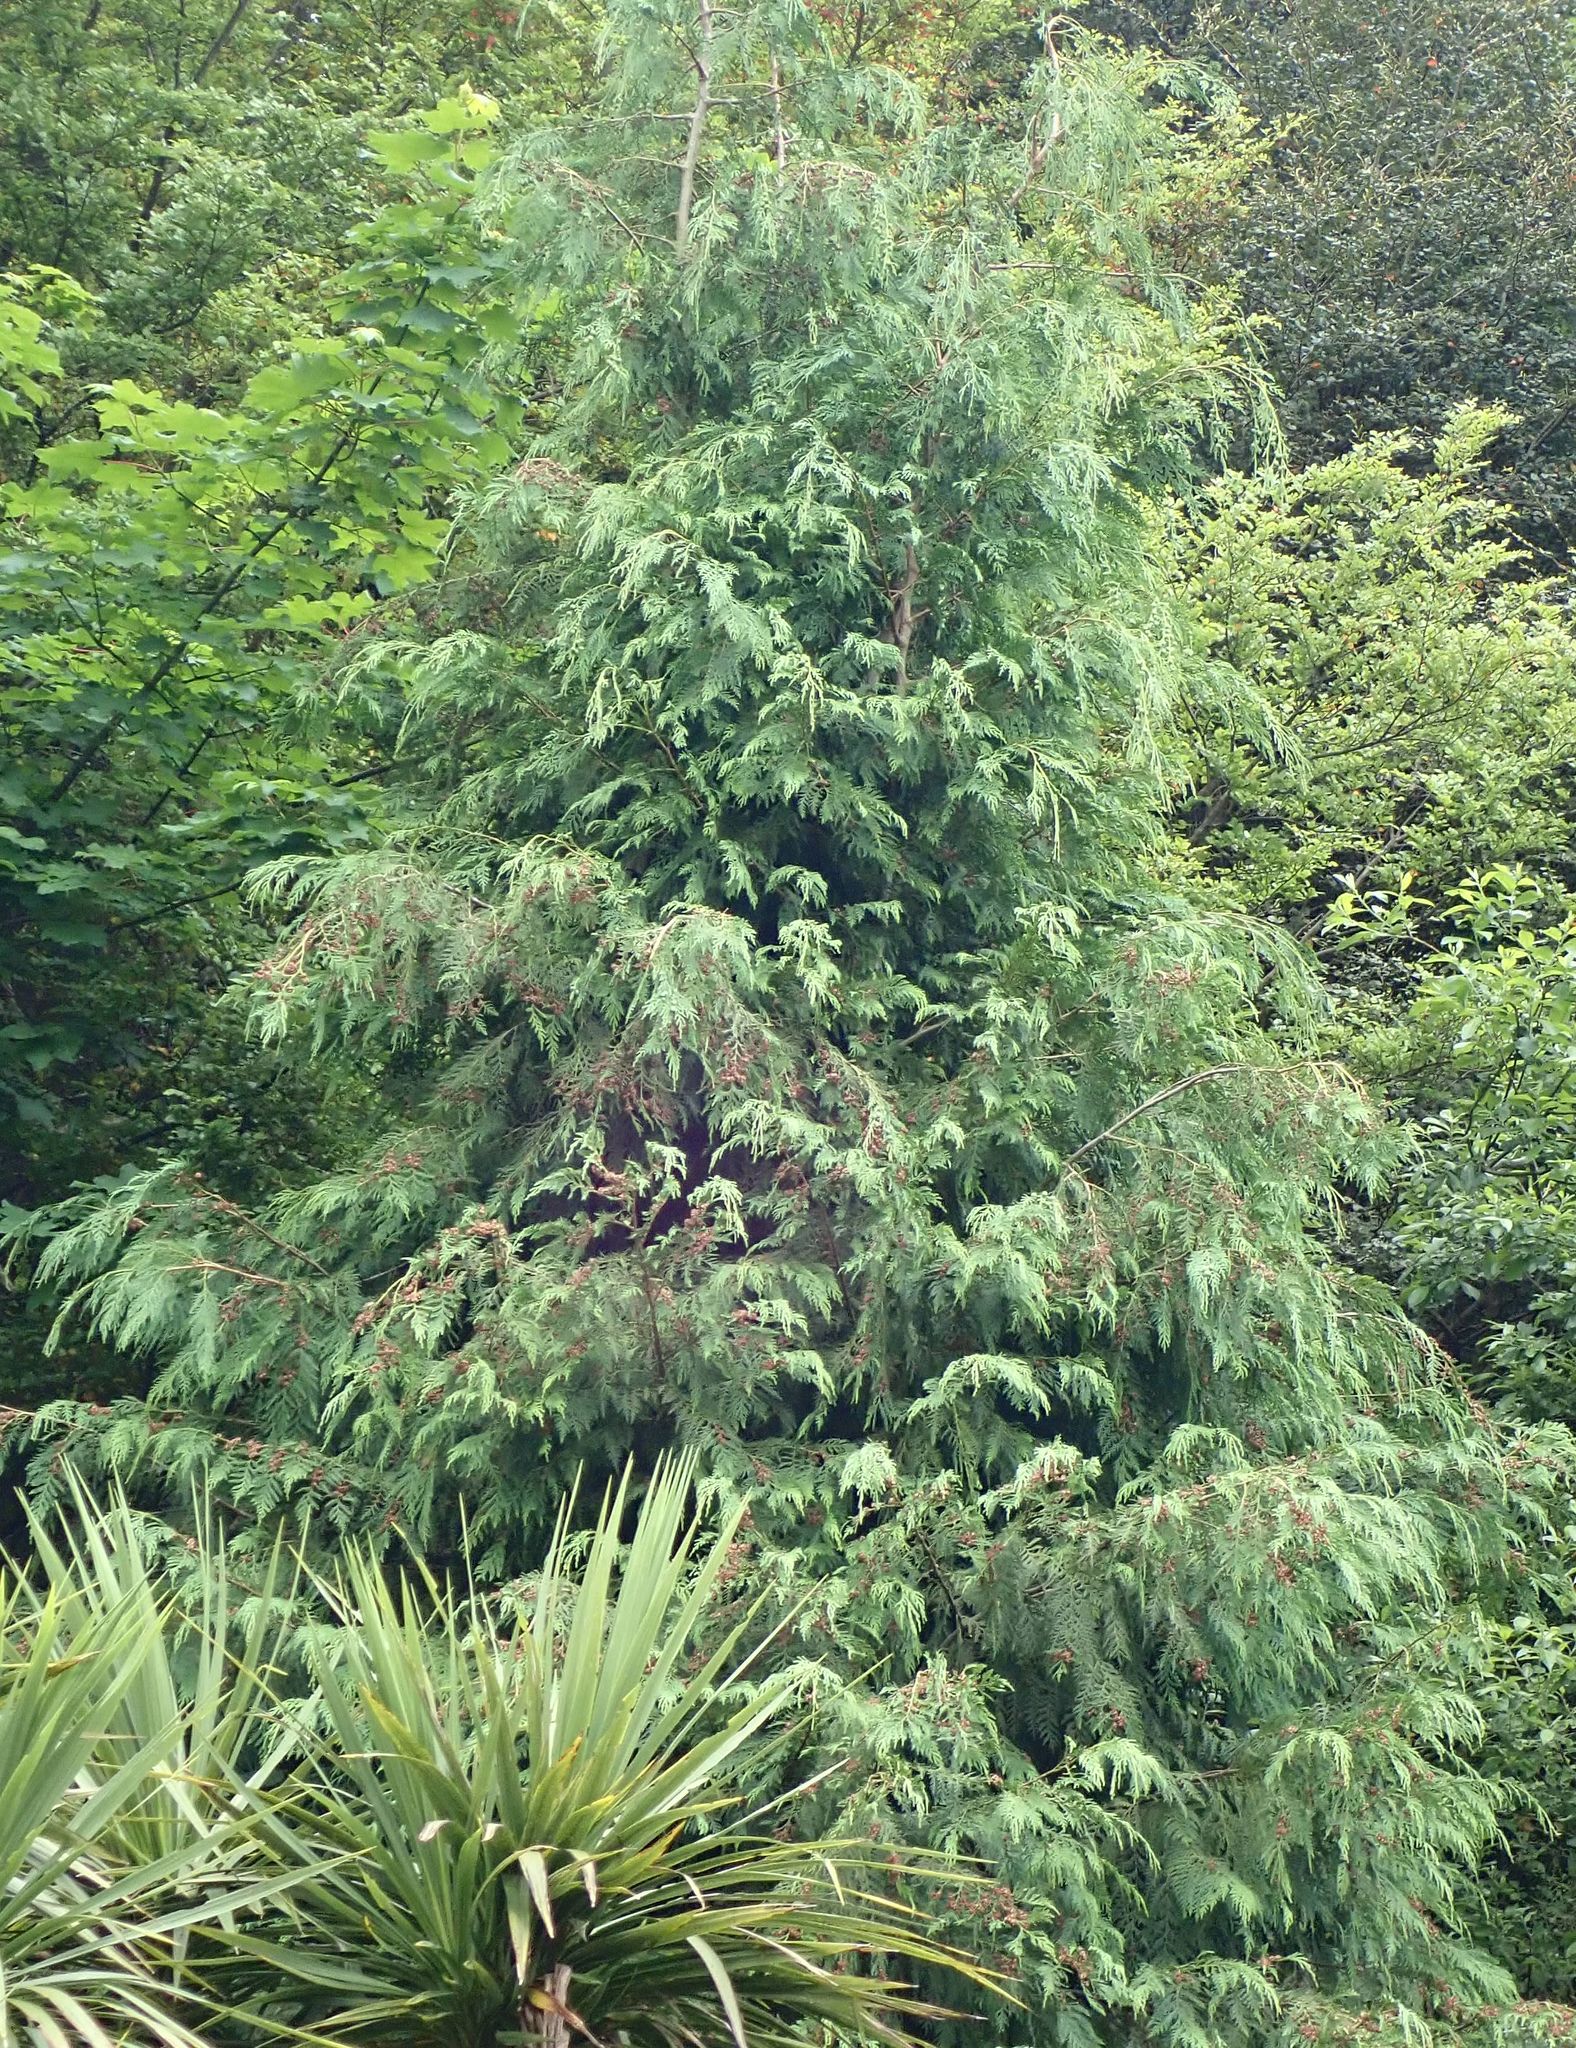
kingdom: Plantae
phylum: Tracheophyta
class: Pinopsida
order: Pinales
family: Cupressaceae
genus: Chamaecyparis
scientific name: Chamaecyparis lawsoniana
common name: Lawson's cypress
